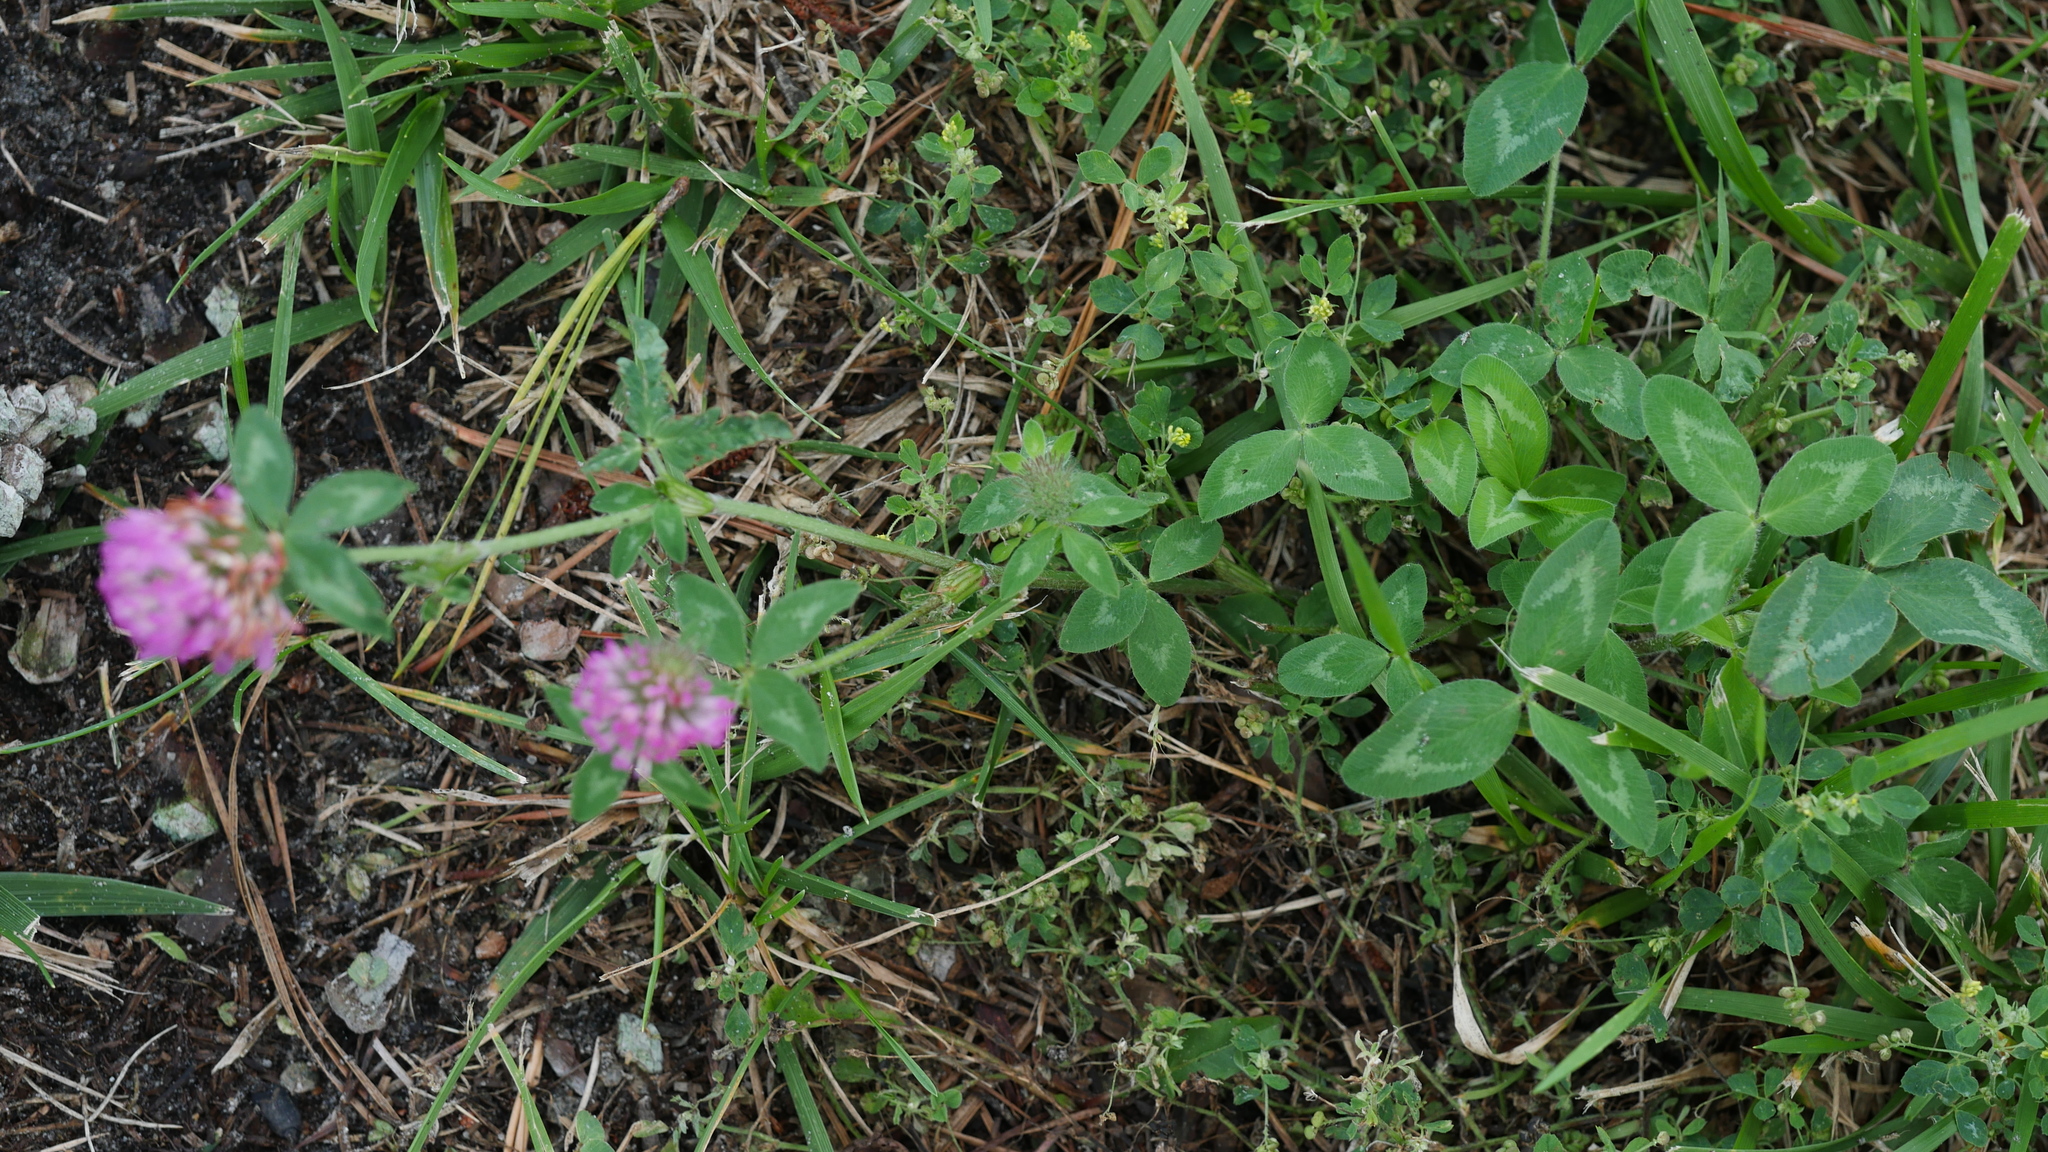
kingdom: Plantae
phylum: Tracheophyta
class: Magnoliopsida
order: Fabales
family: Fabaceae
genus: Trifolium
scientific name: Trifolium pratense
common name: Red clover
